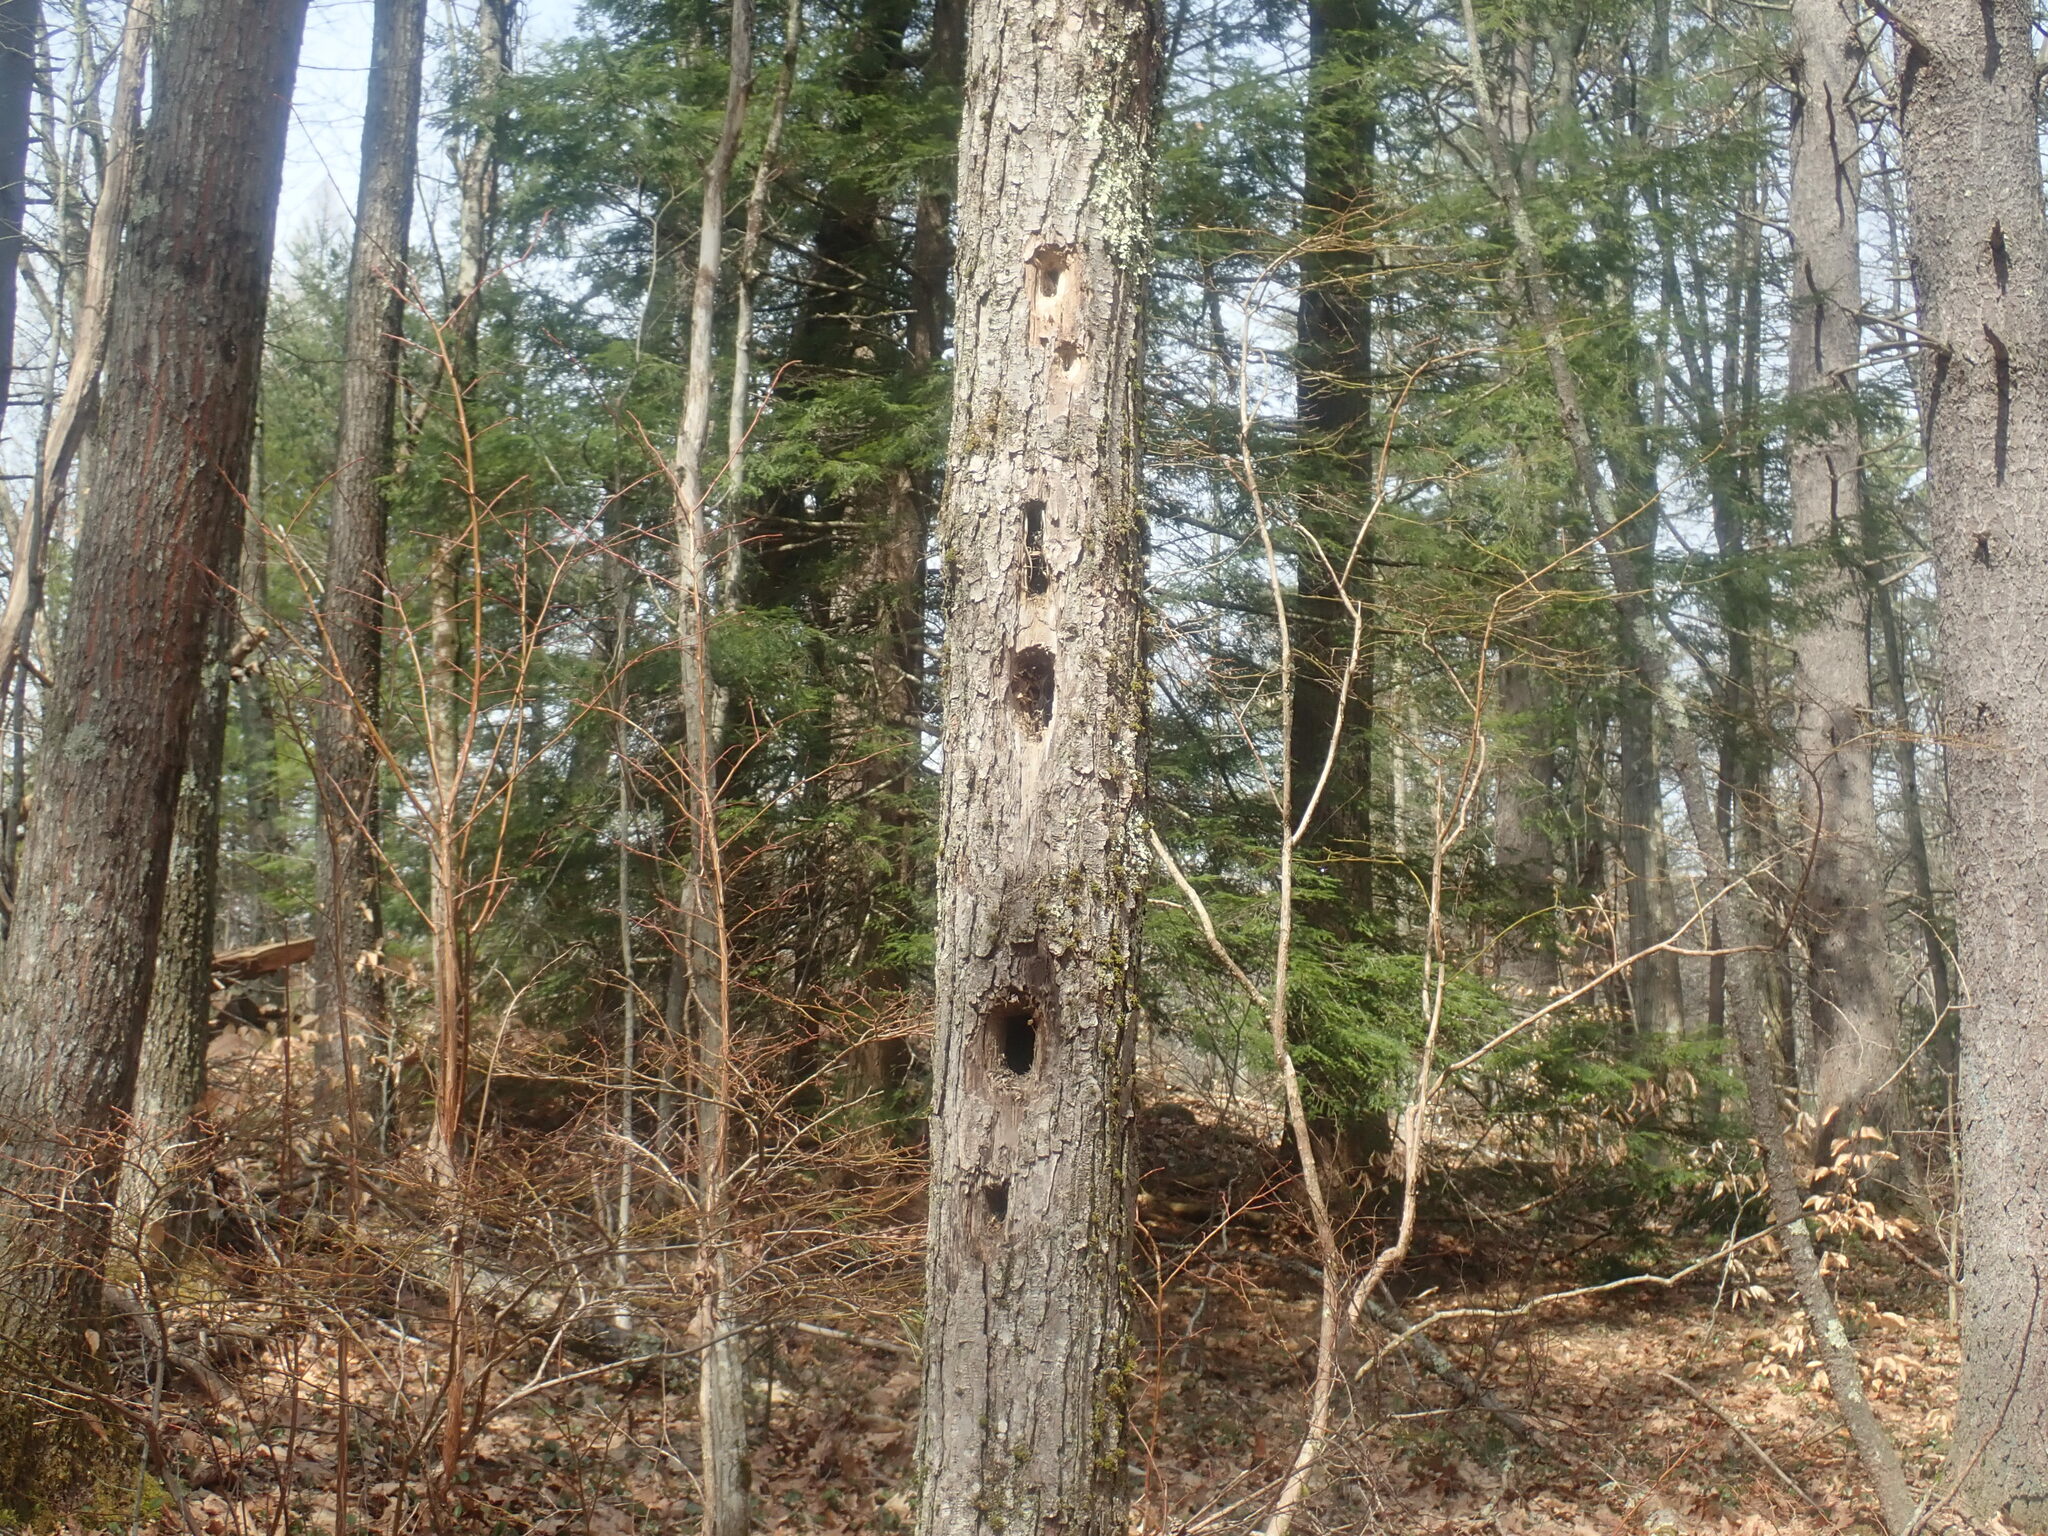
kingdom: Animalia
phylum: Chordata
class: Aves
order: Piciformes
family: Picidae
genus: Dryocopus
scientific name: Dryocopus pileatus
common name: Pileated woodpecker
